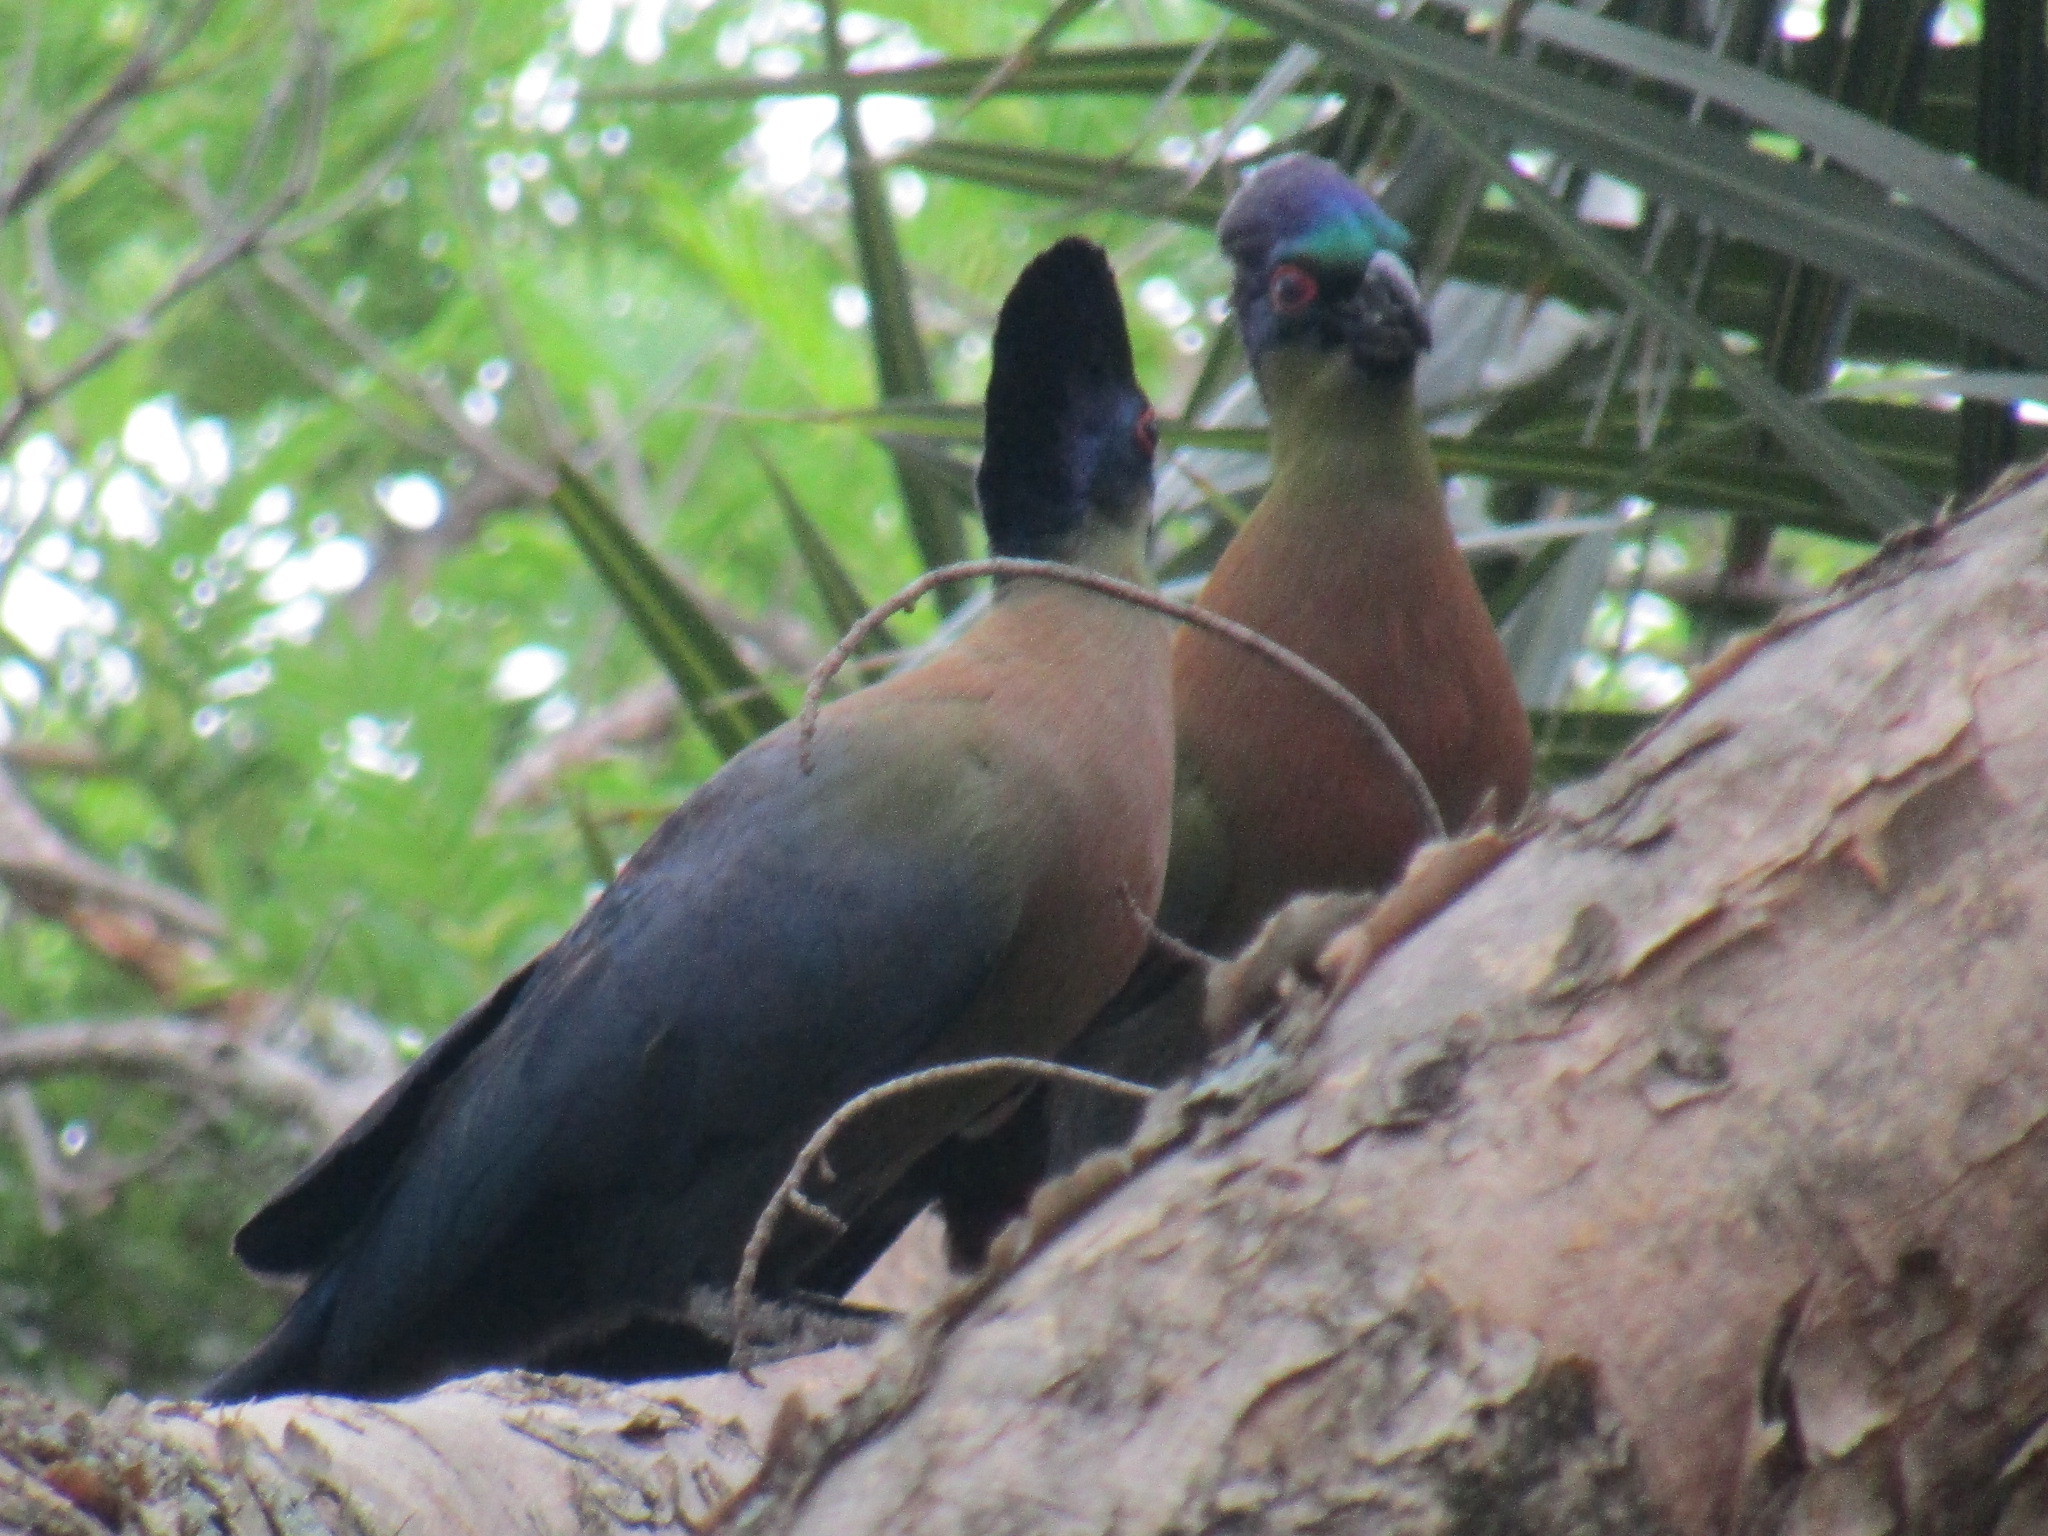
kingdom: Animalia
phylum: Chordata
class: Aves
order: Musophagiformes
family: Musophagidae
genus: Tauraco
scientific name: Tauraco porphyreolophus
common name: Purple-crested turaco
